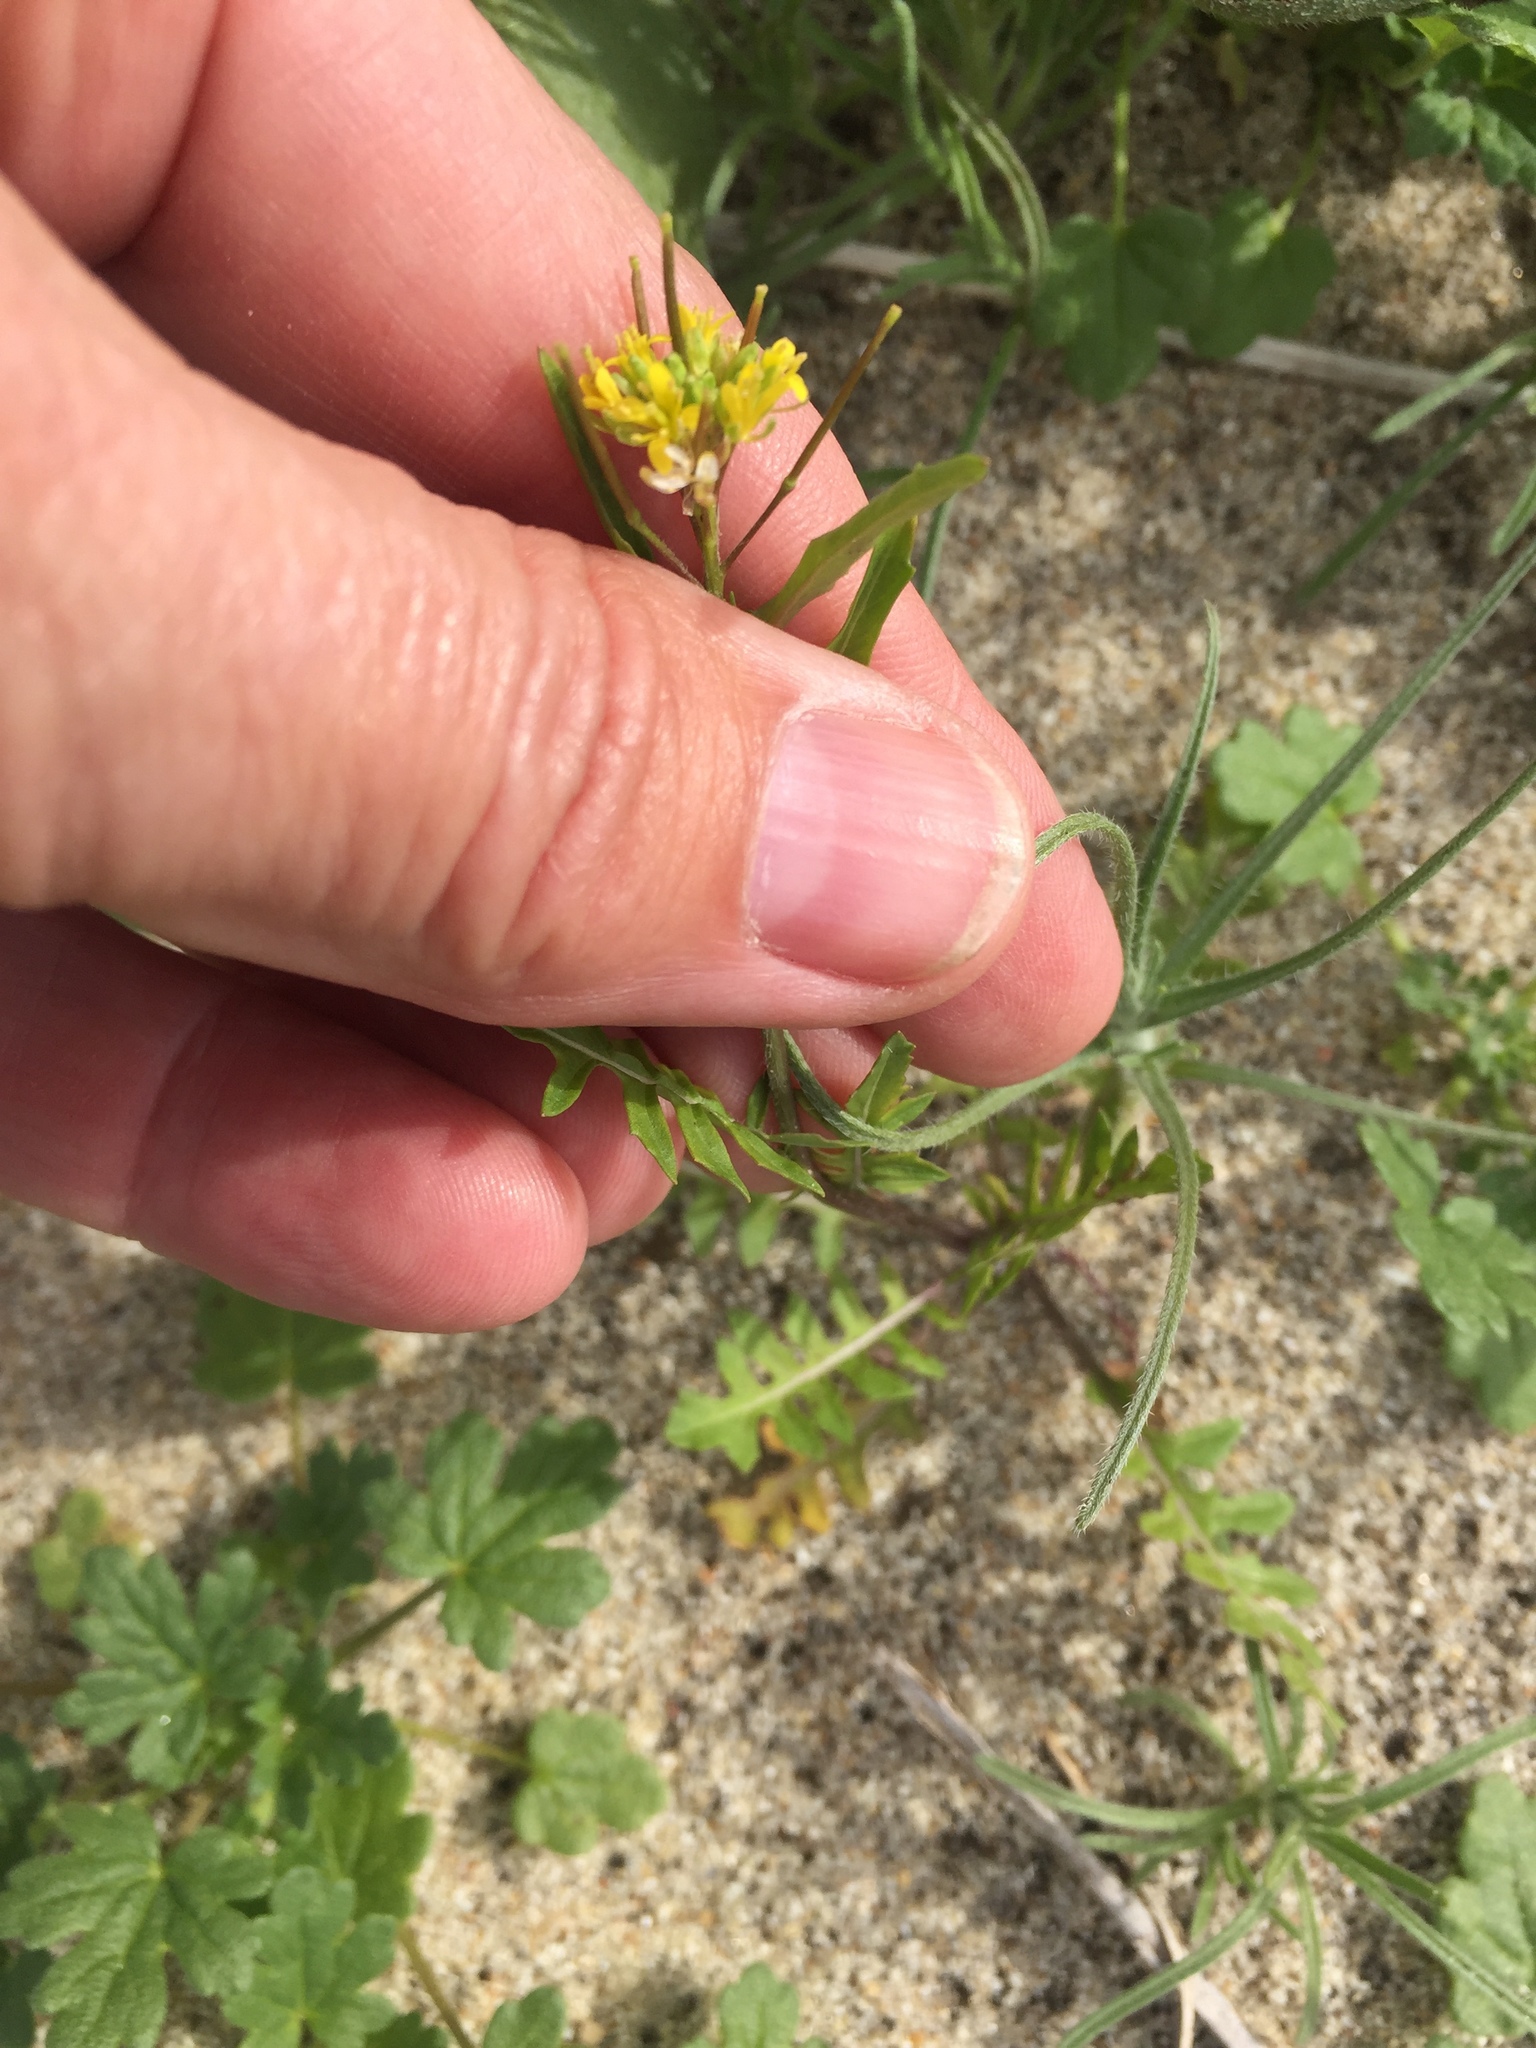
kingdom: Plantae
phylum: Tracheophyta
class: Magnoliopsida
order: Brassicales
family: Brassicaceae
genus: Sisymbrium
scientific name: Sisymbrium irio
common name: London rocket
